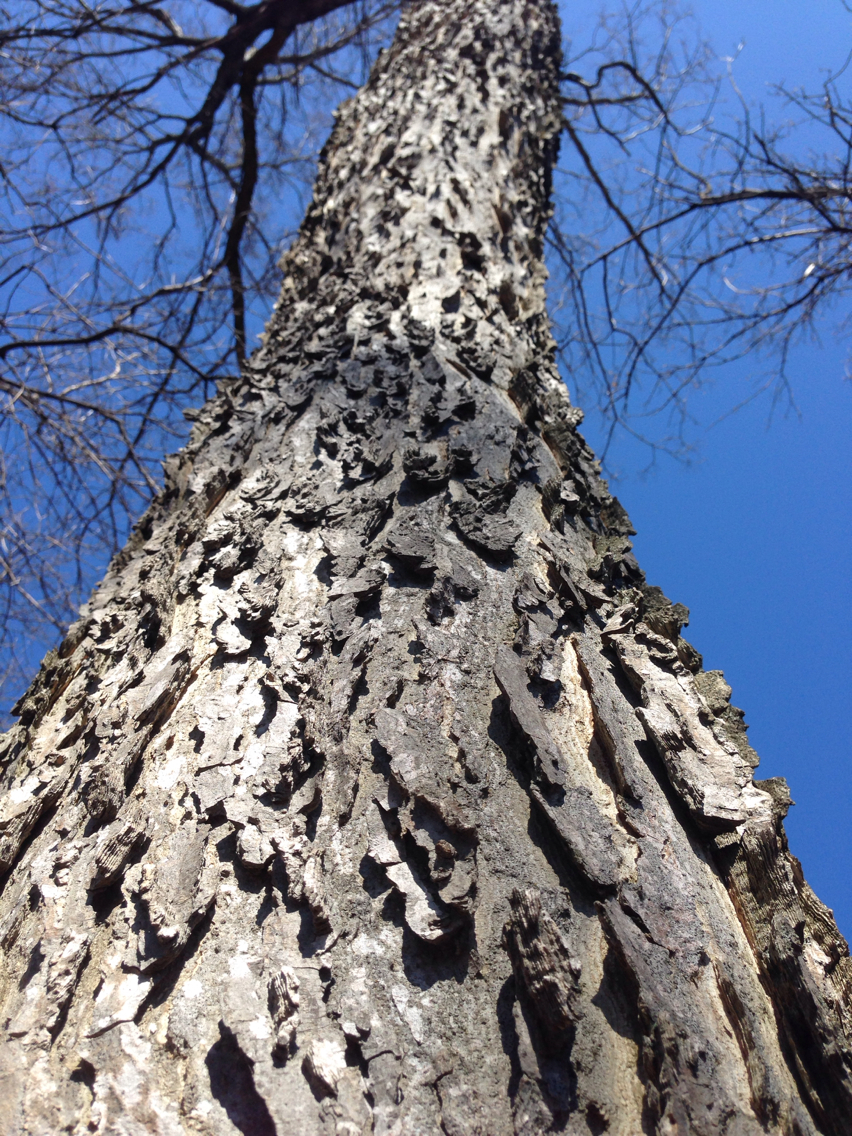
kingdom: Plantae
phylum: Tracheophyta
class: Magnoliopsida
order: Rosales
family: Cannabaceae
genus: Celtis
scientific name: Celtis occidentalis
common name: Common hackberry
